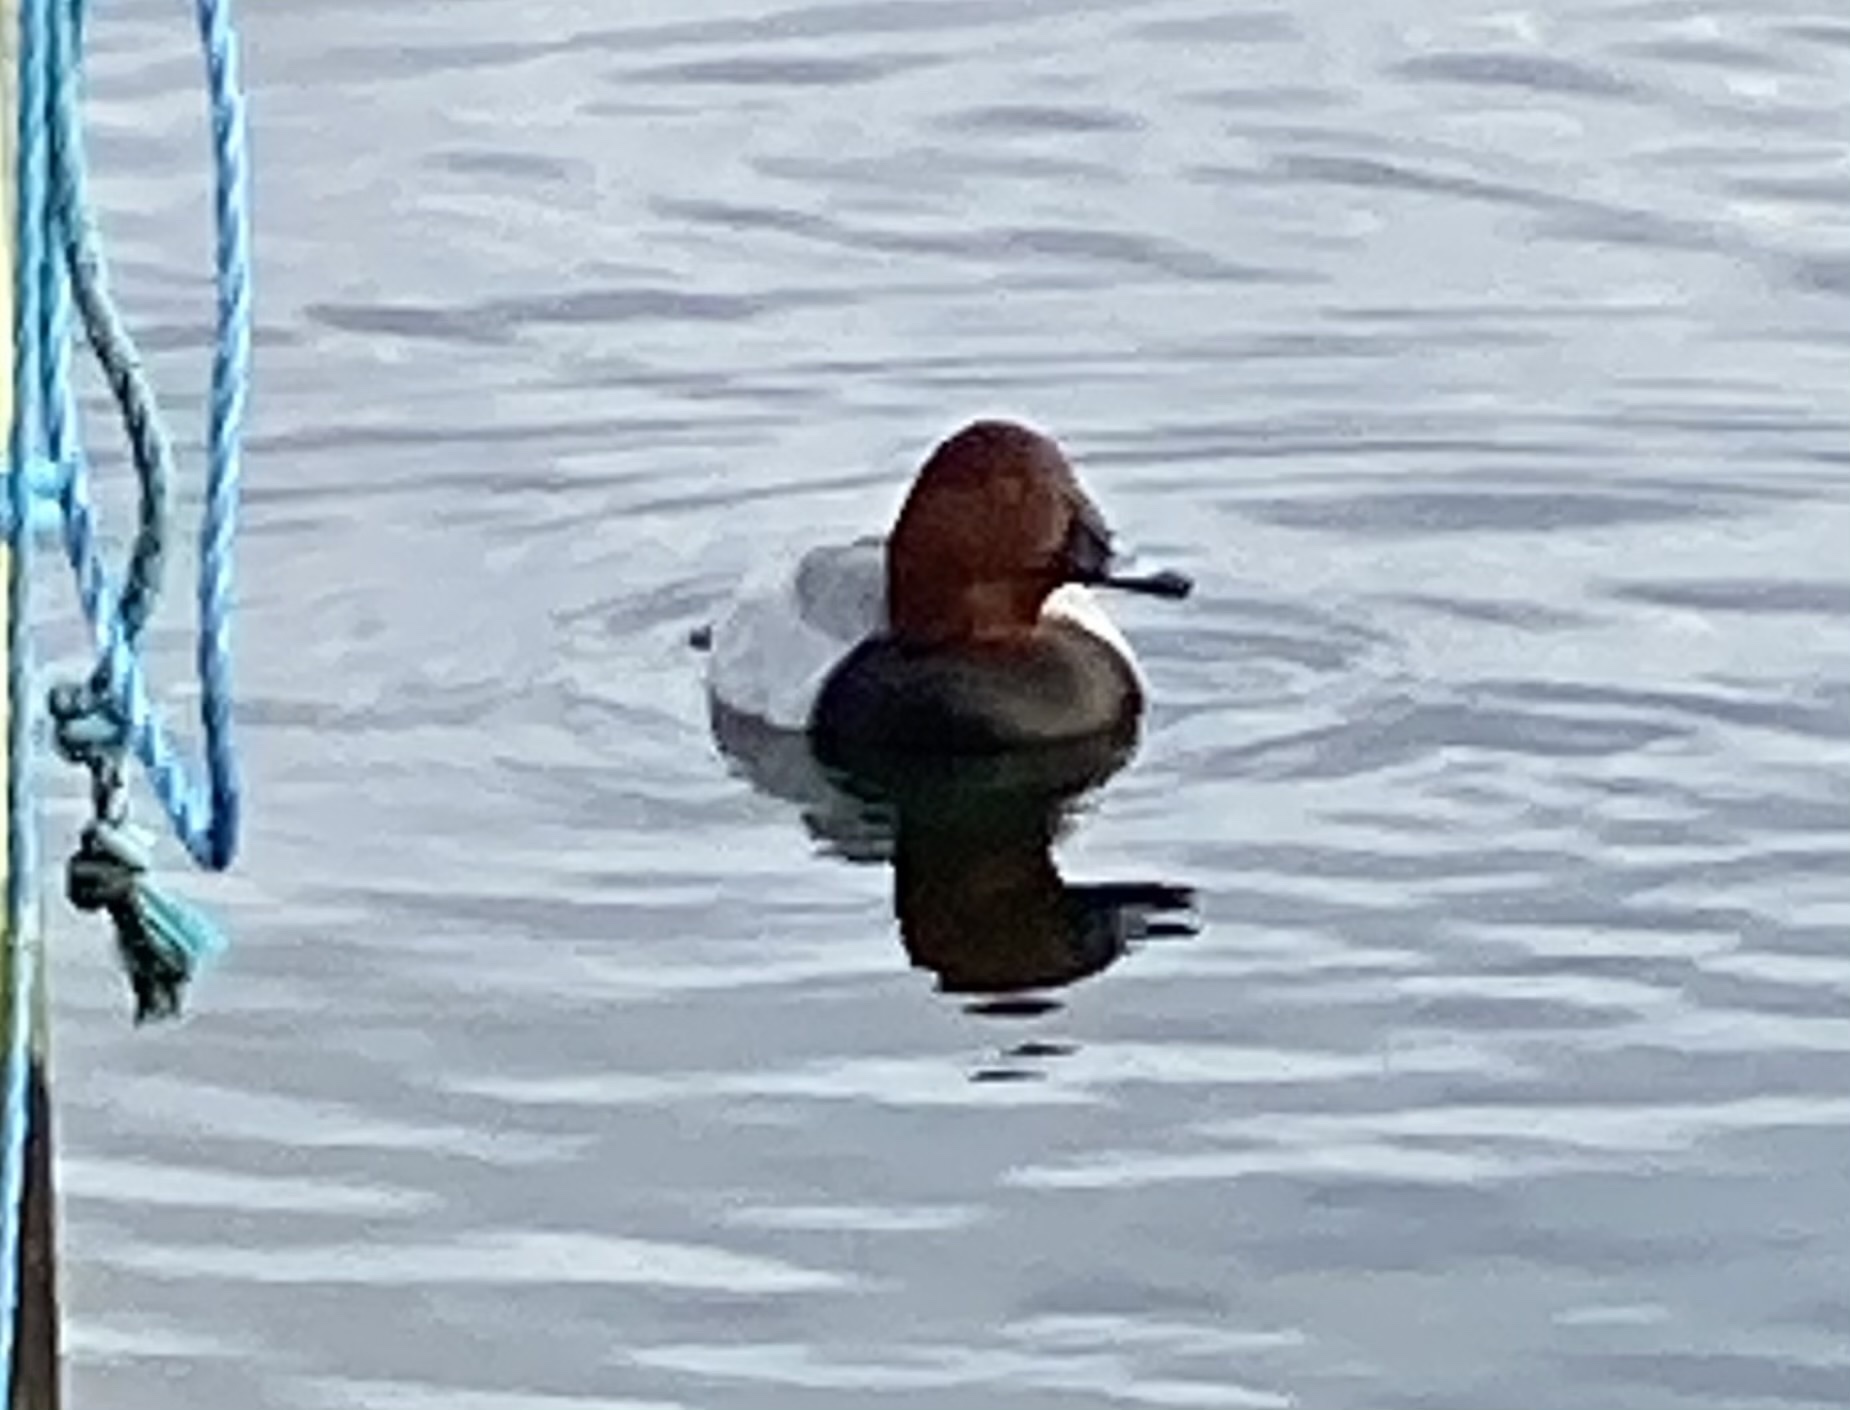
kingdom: Animalia
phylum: Chordata
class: Aves
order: Anseriformes
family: Anatidae
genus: Aythya
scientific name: Aythya ferina
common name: Common pochard
